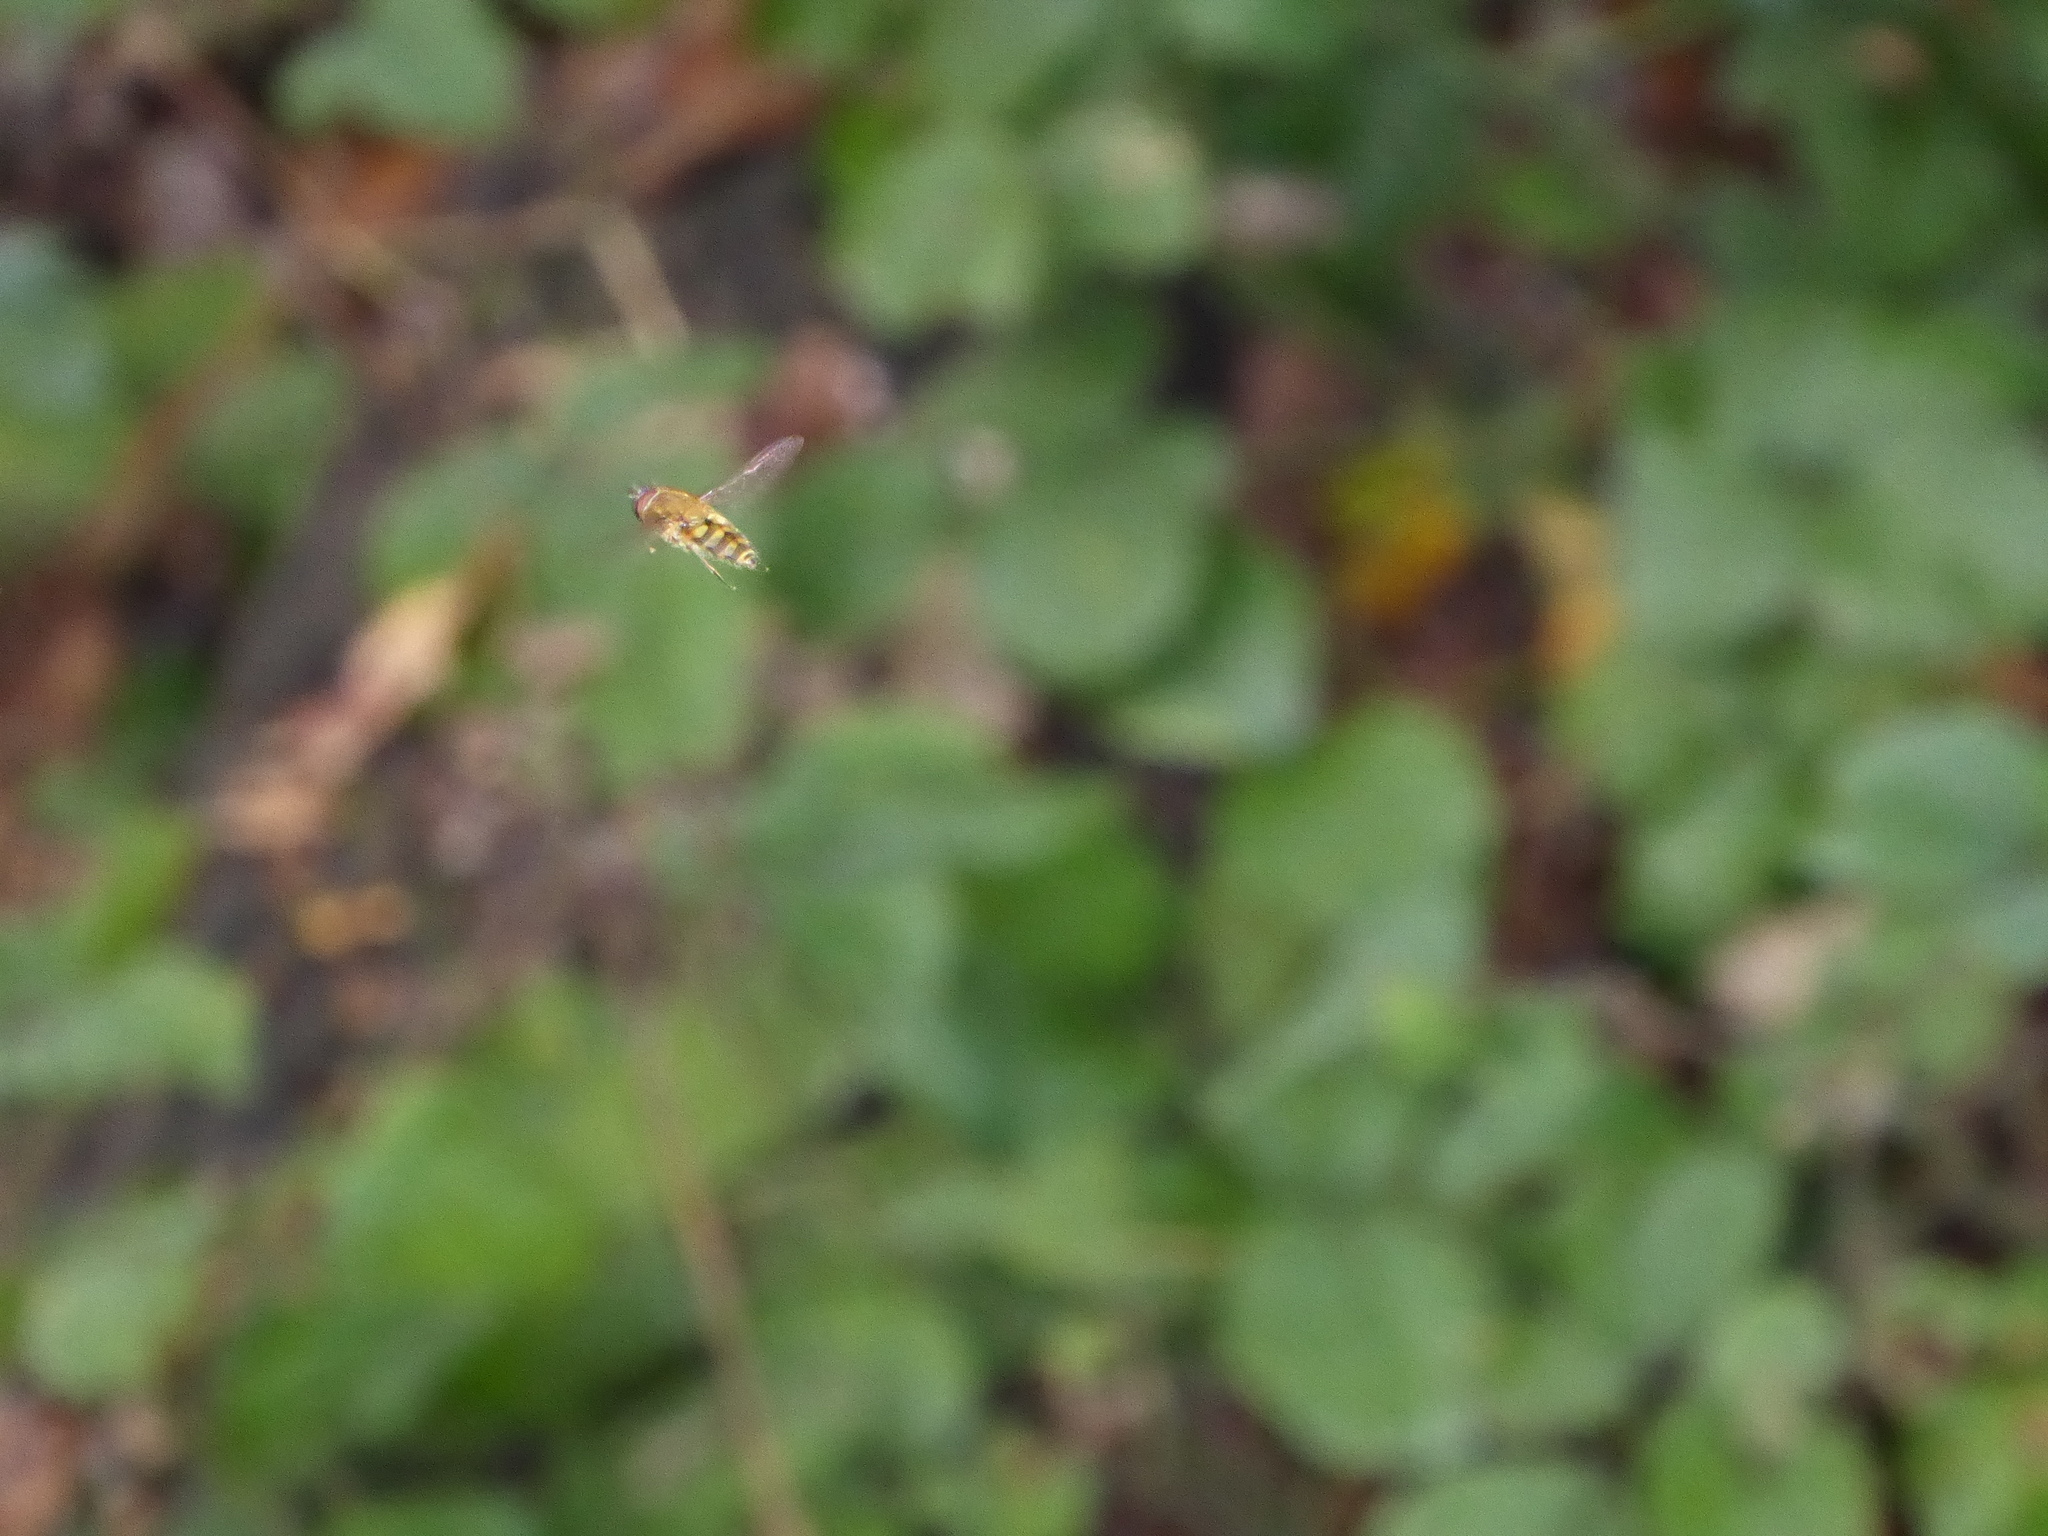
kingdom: Animalia
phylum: Arthropoda
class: Insecta
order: Diptera
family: Syrphidae
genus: Syrphus
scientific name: Syrphus
